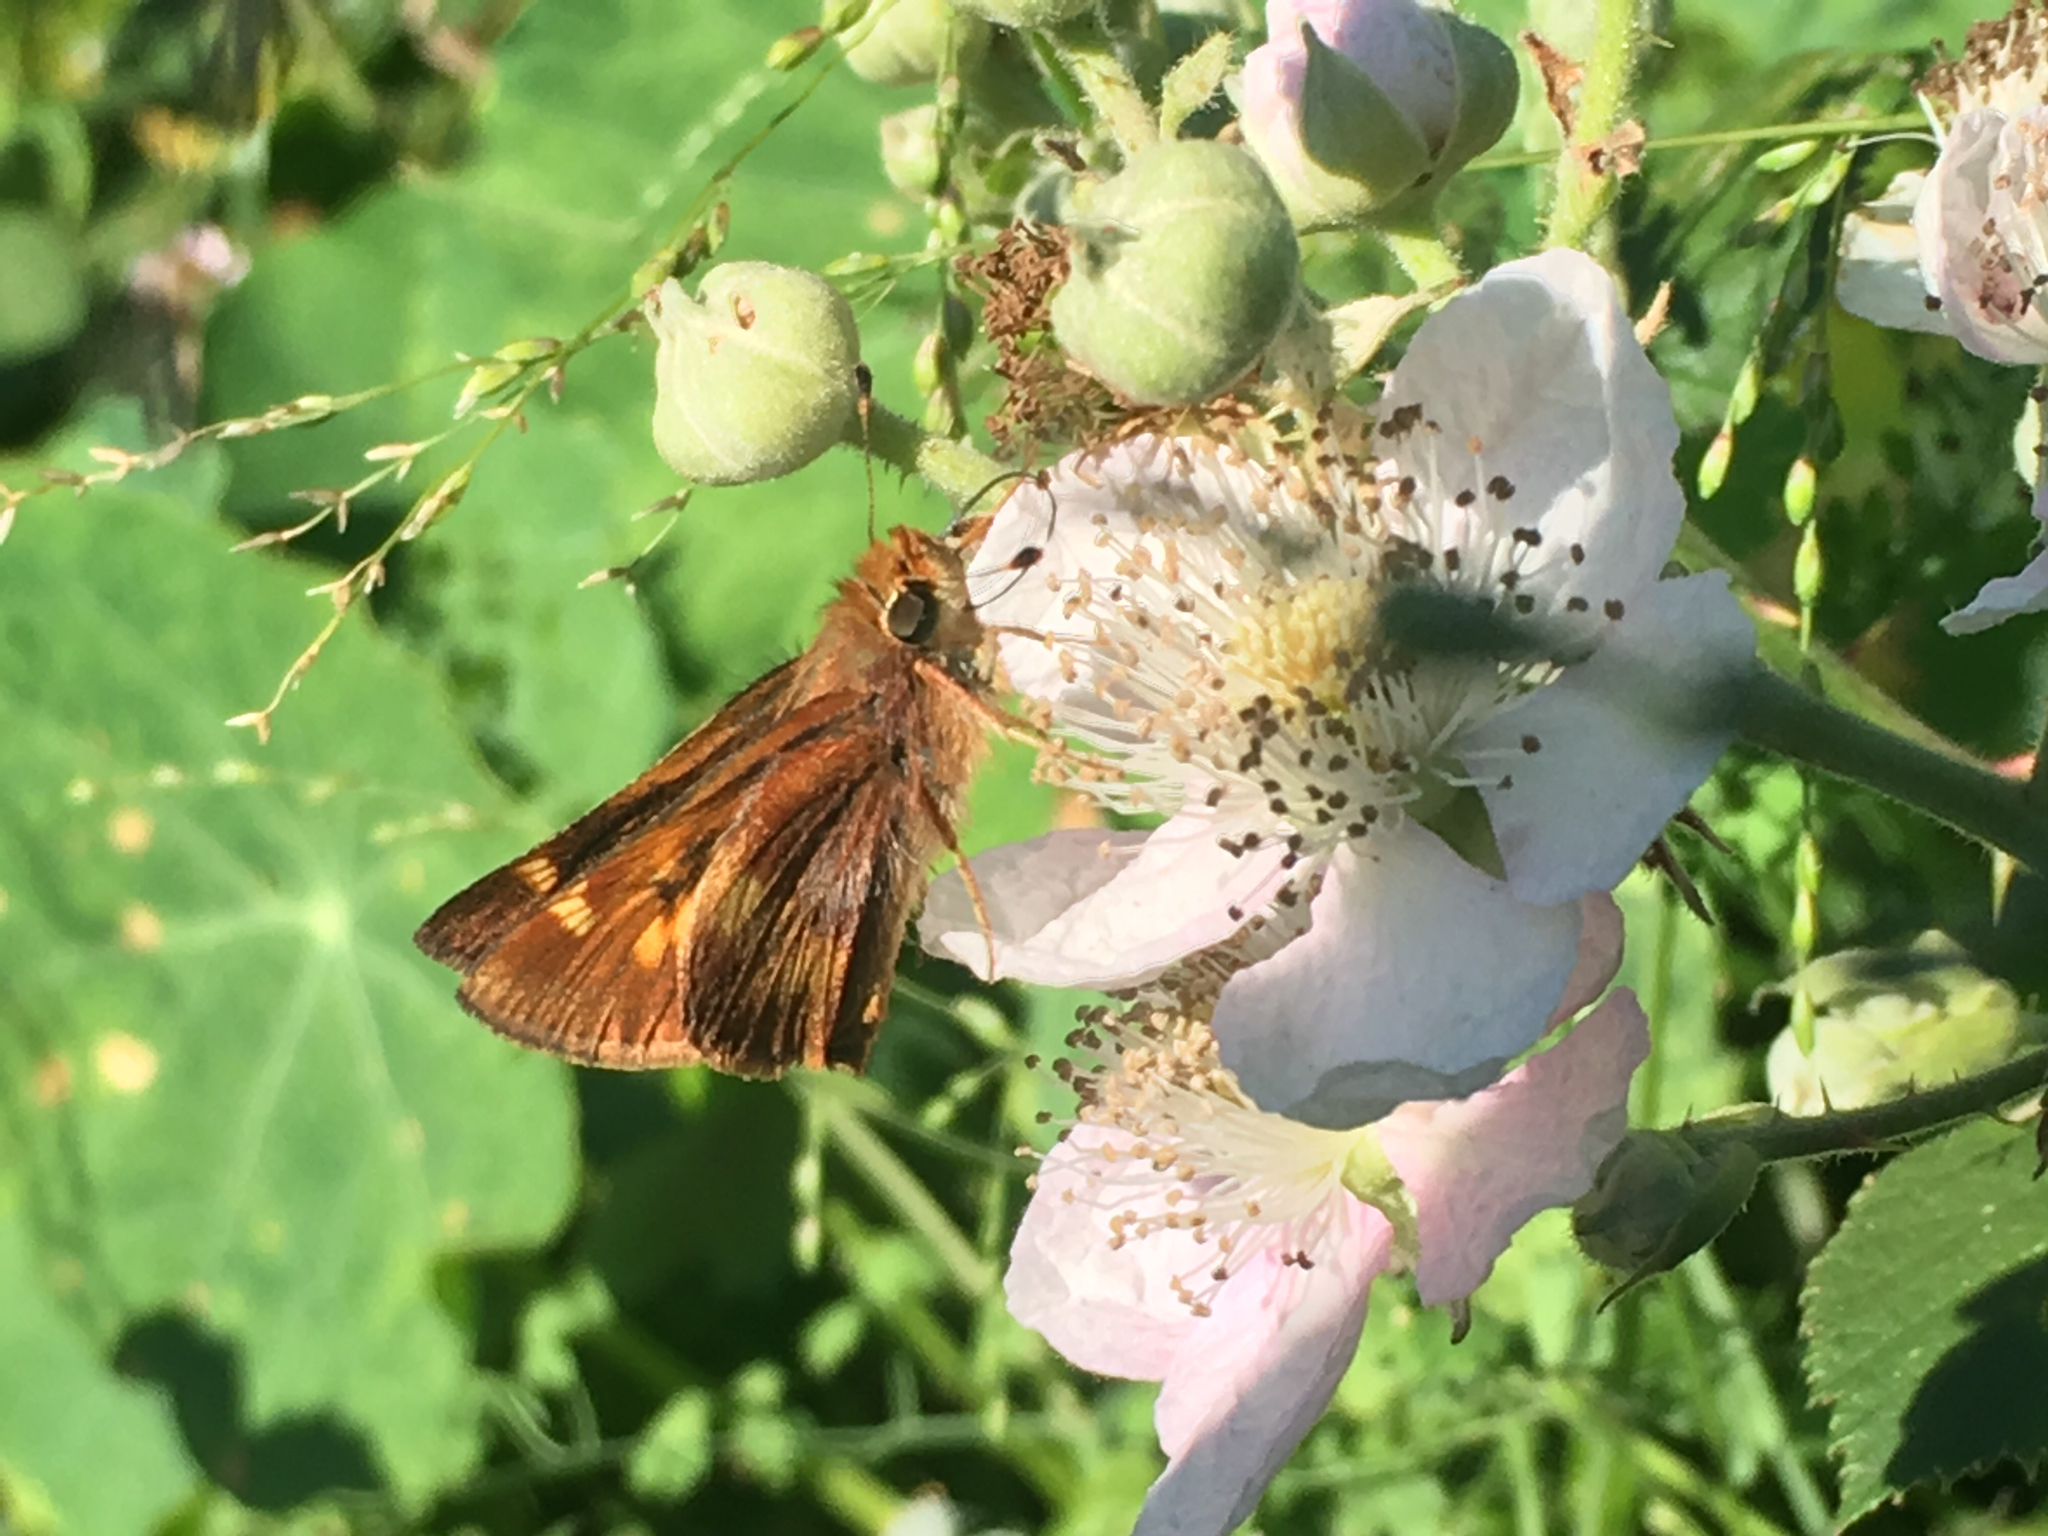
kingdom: Animalia
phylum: Arthropoda
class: Insecta
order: Lepidoptera
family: Hesperiidae
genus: Lon
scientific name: Lon melane
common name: Umber skipper
